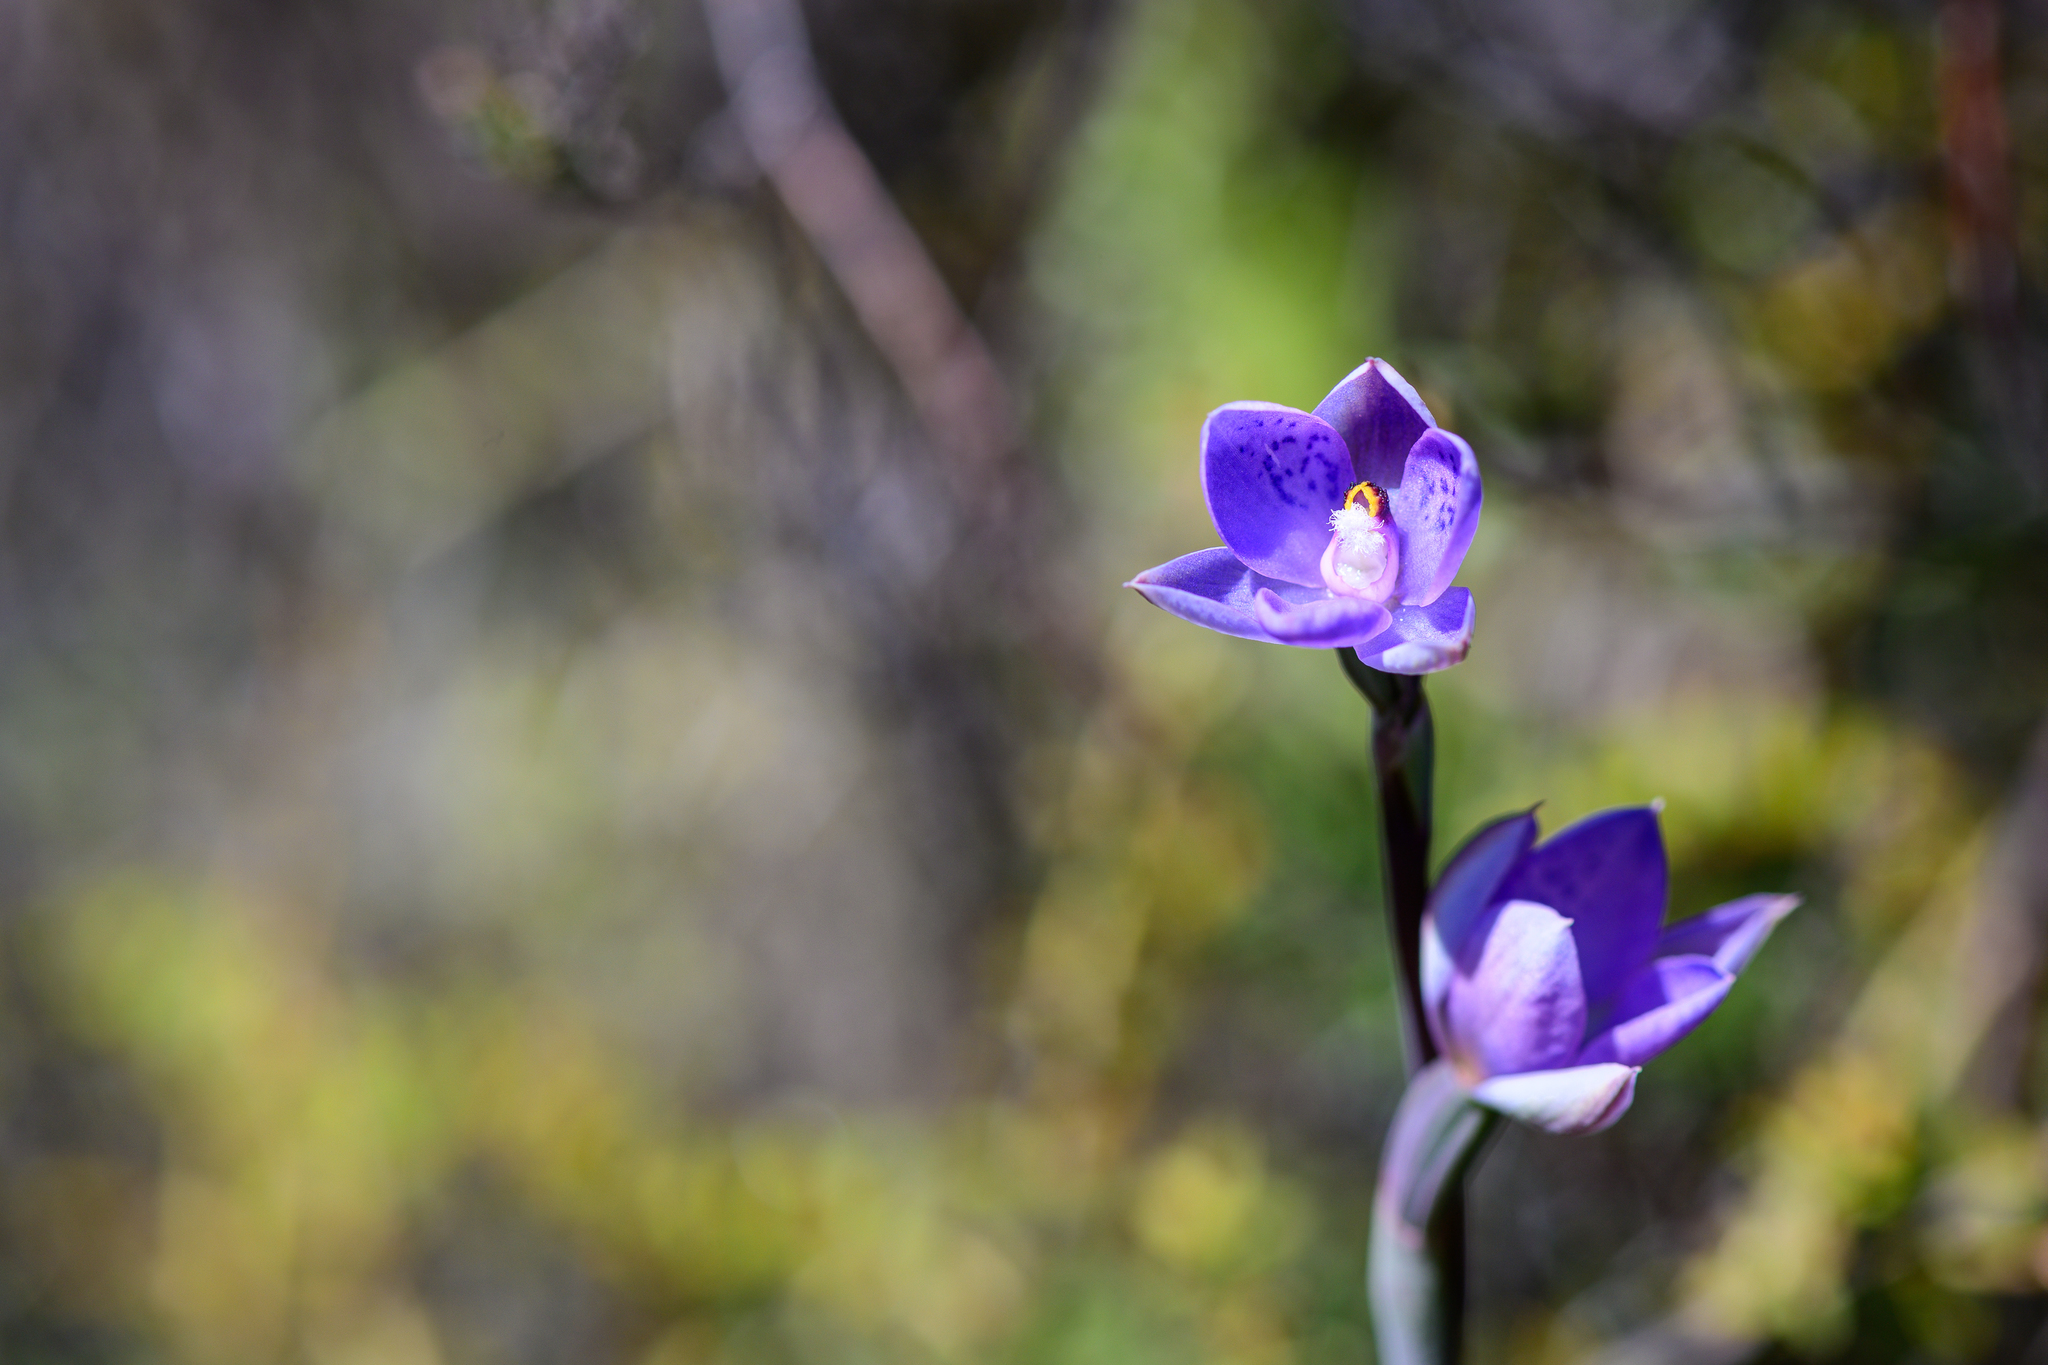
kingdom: Plantae
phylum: Tracheophyta
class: Liliopsida
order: Asparagales
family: Orchidaceae
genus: Thelymitra
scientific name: Thelymitra nervosa
